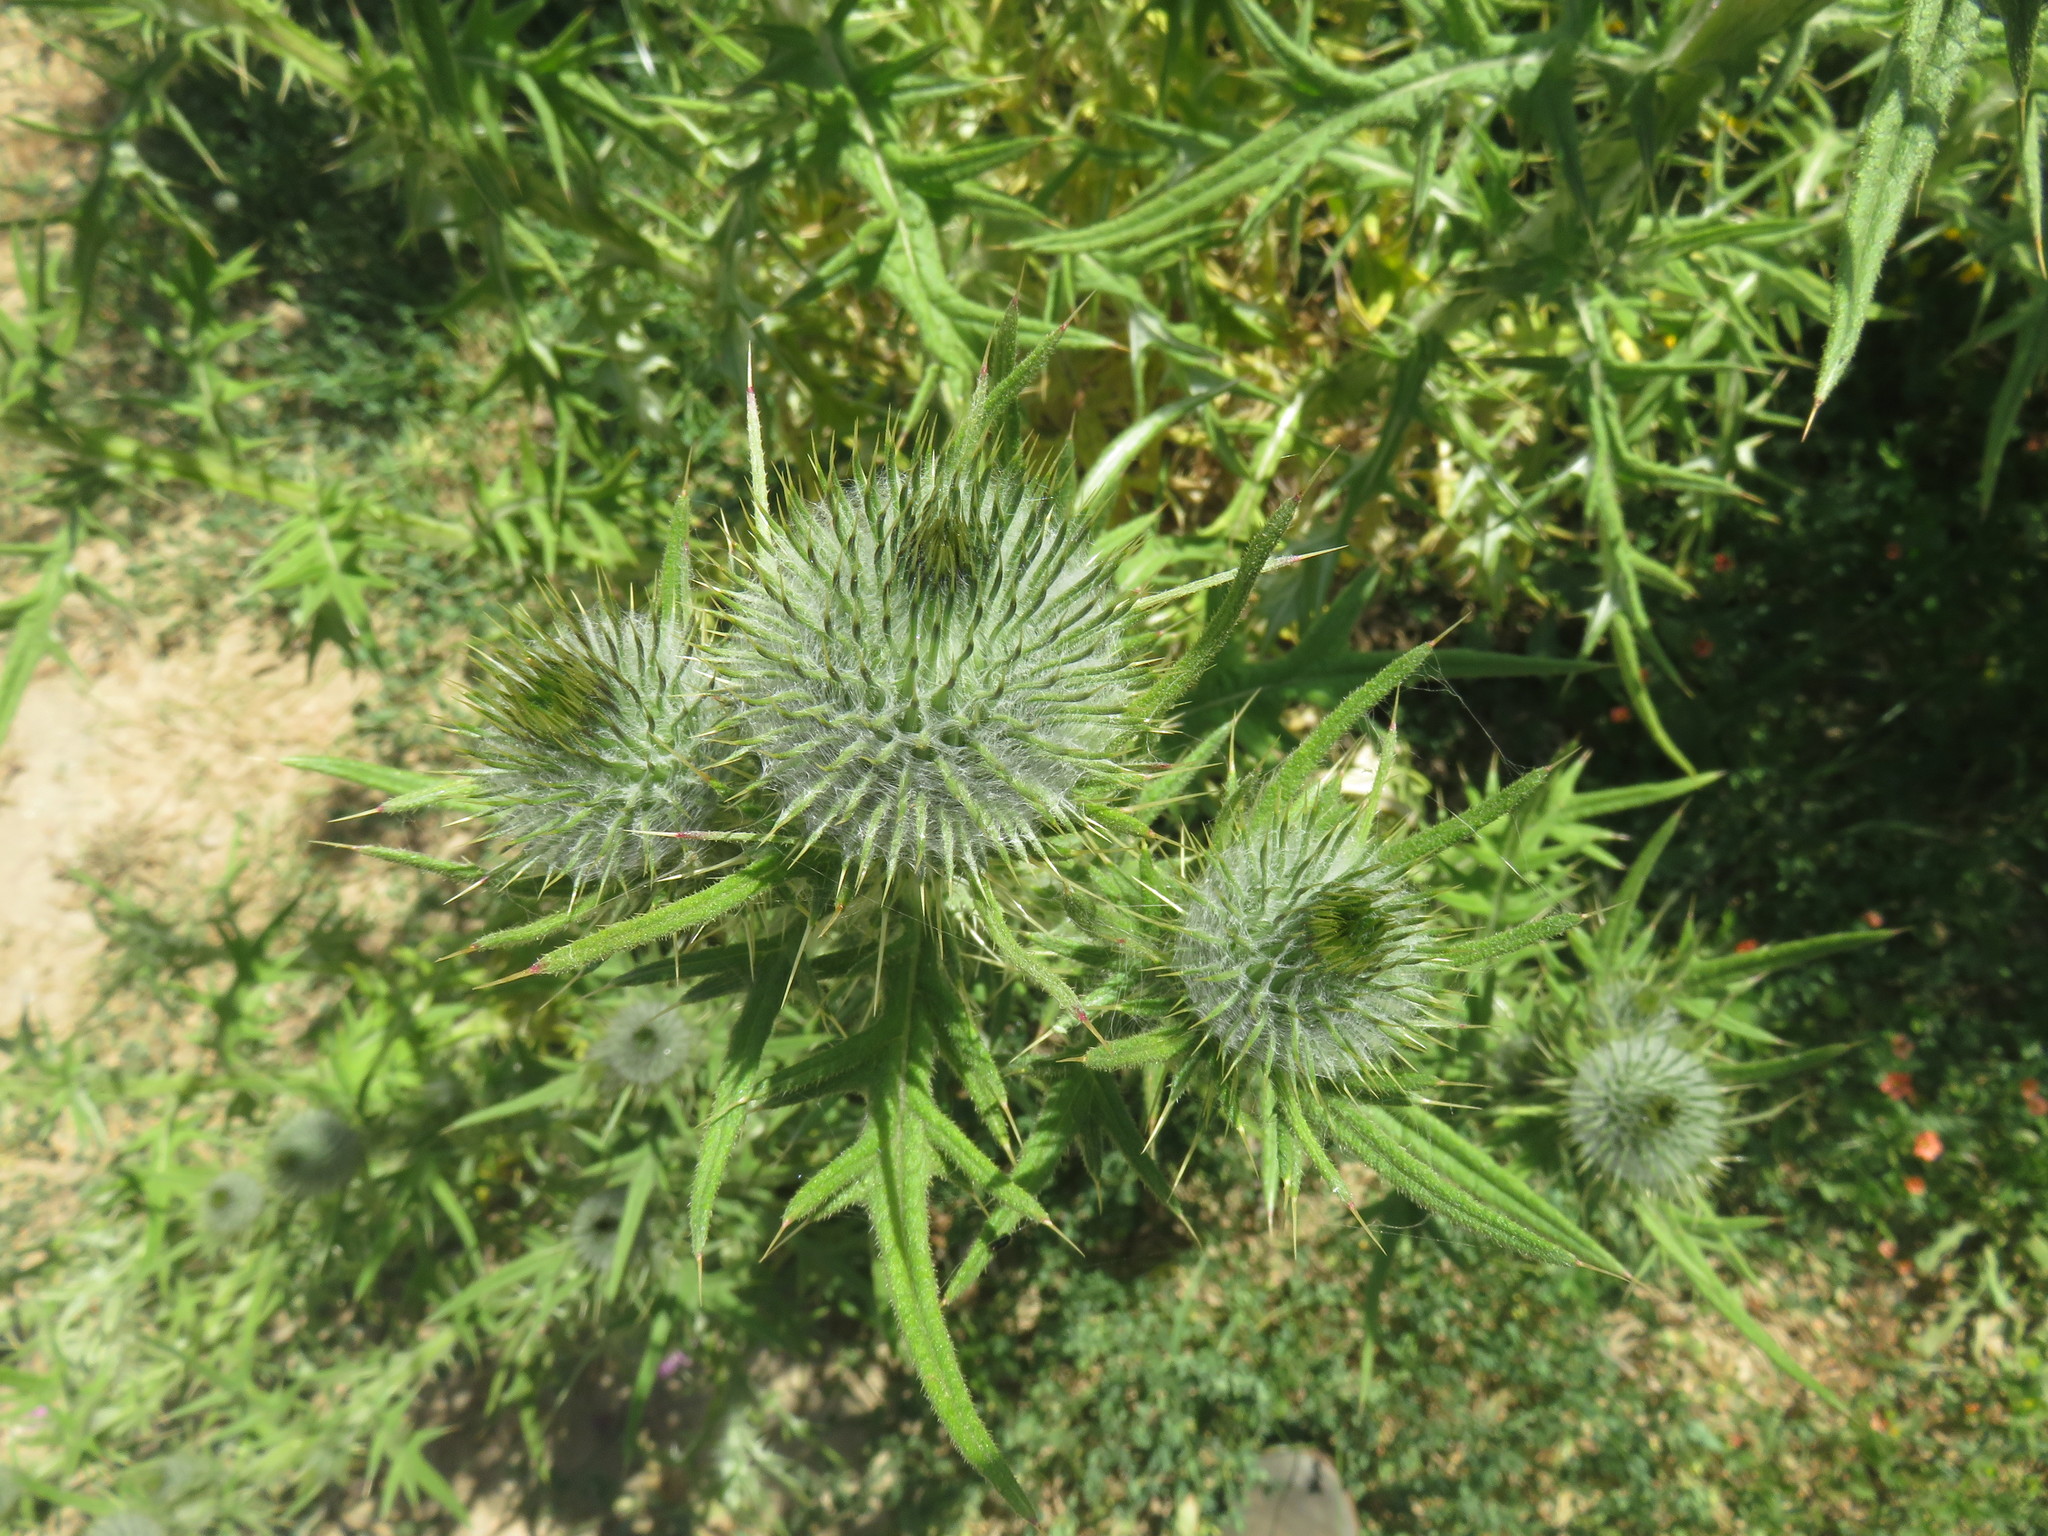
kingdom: Plantae
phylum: Tracheophyta
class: Magnoliopsida
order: Asterales
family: Asteraceae
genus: Cirsium
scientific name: Cirsium vulgare
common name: Bull thistle
